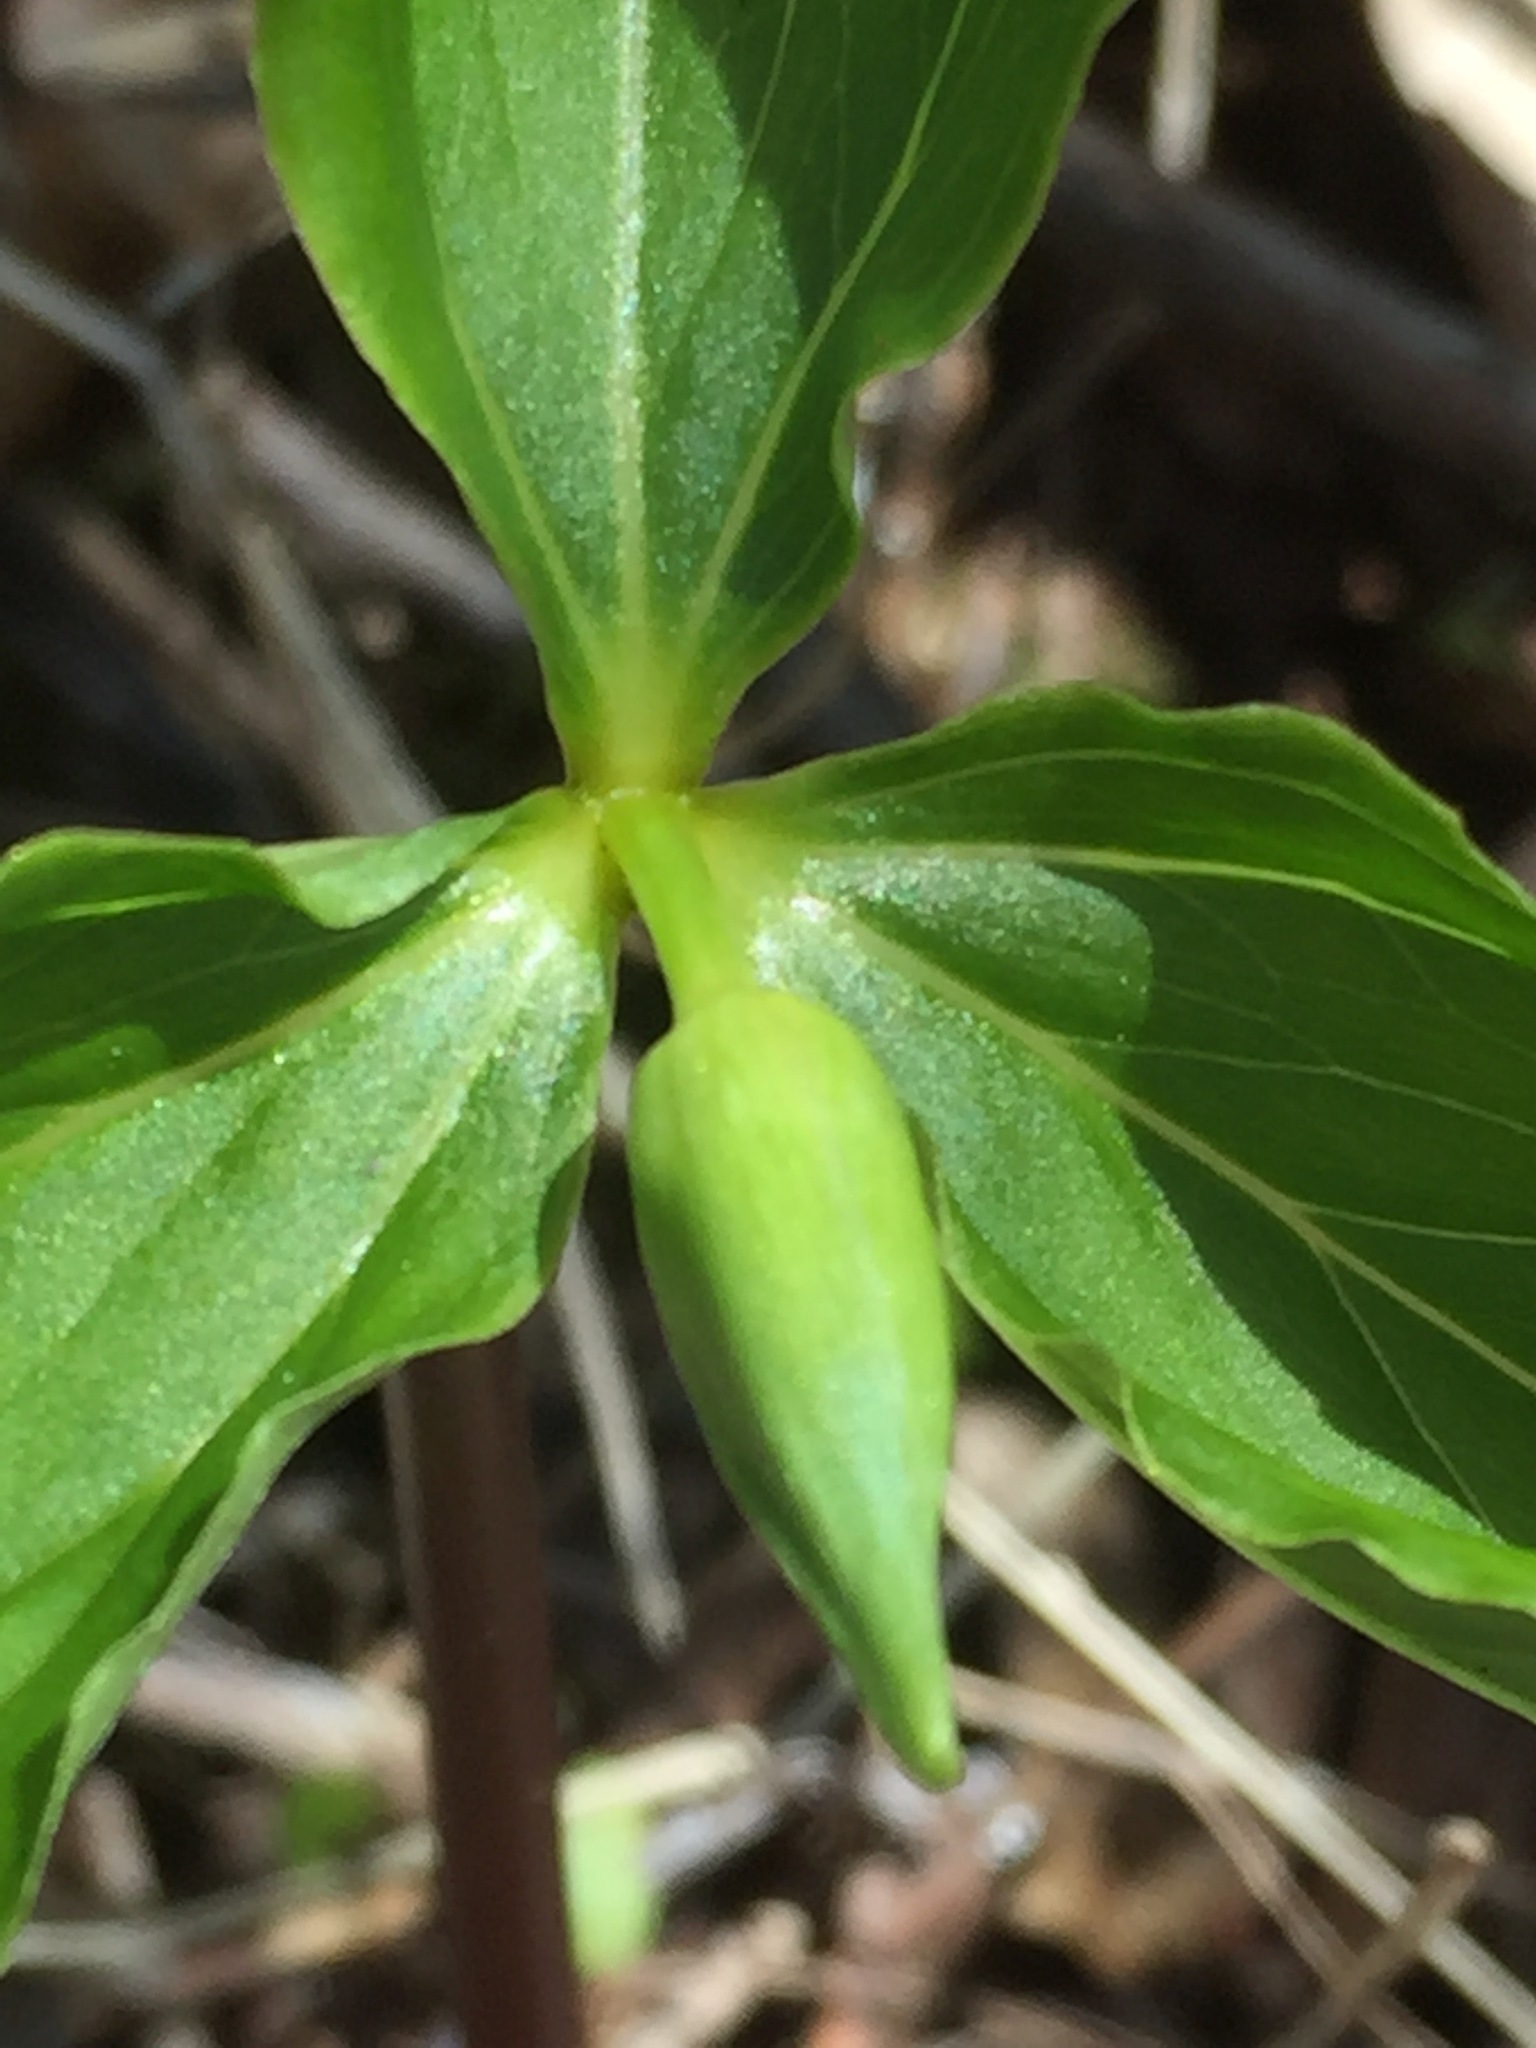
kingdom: Plantae
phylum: Tracheophyta
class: Liliopsida
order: Liliales
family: Melanthiaceae
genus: Trillium
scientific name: Trillium cernuum
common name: Nodding trillium
